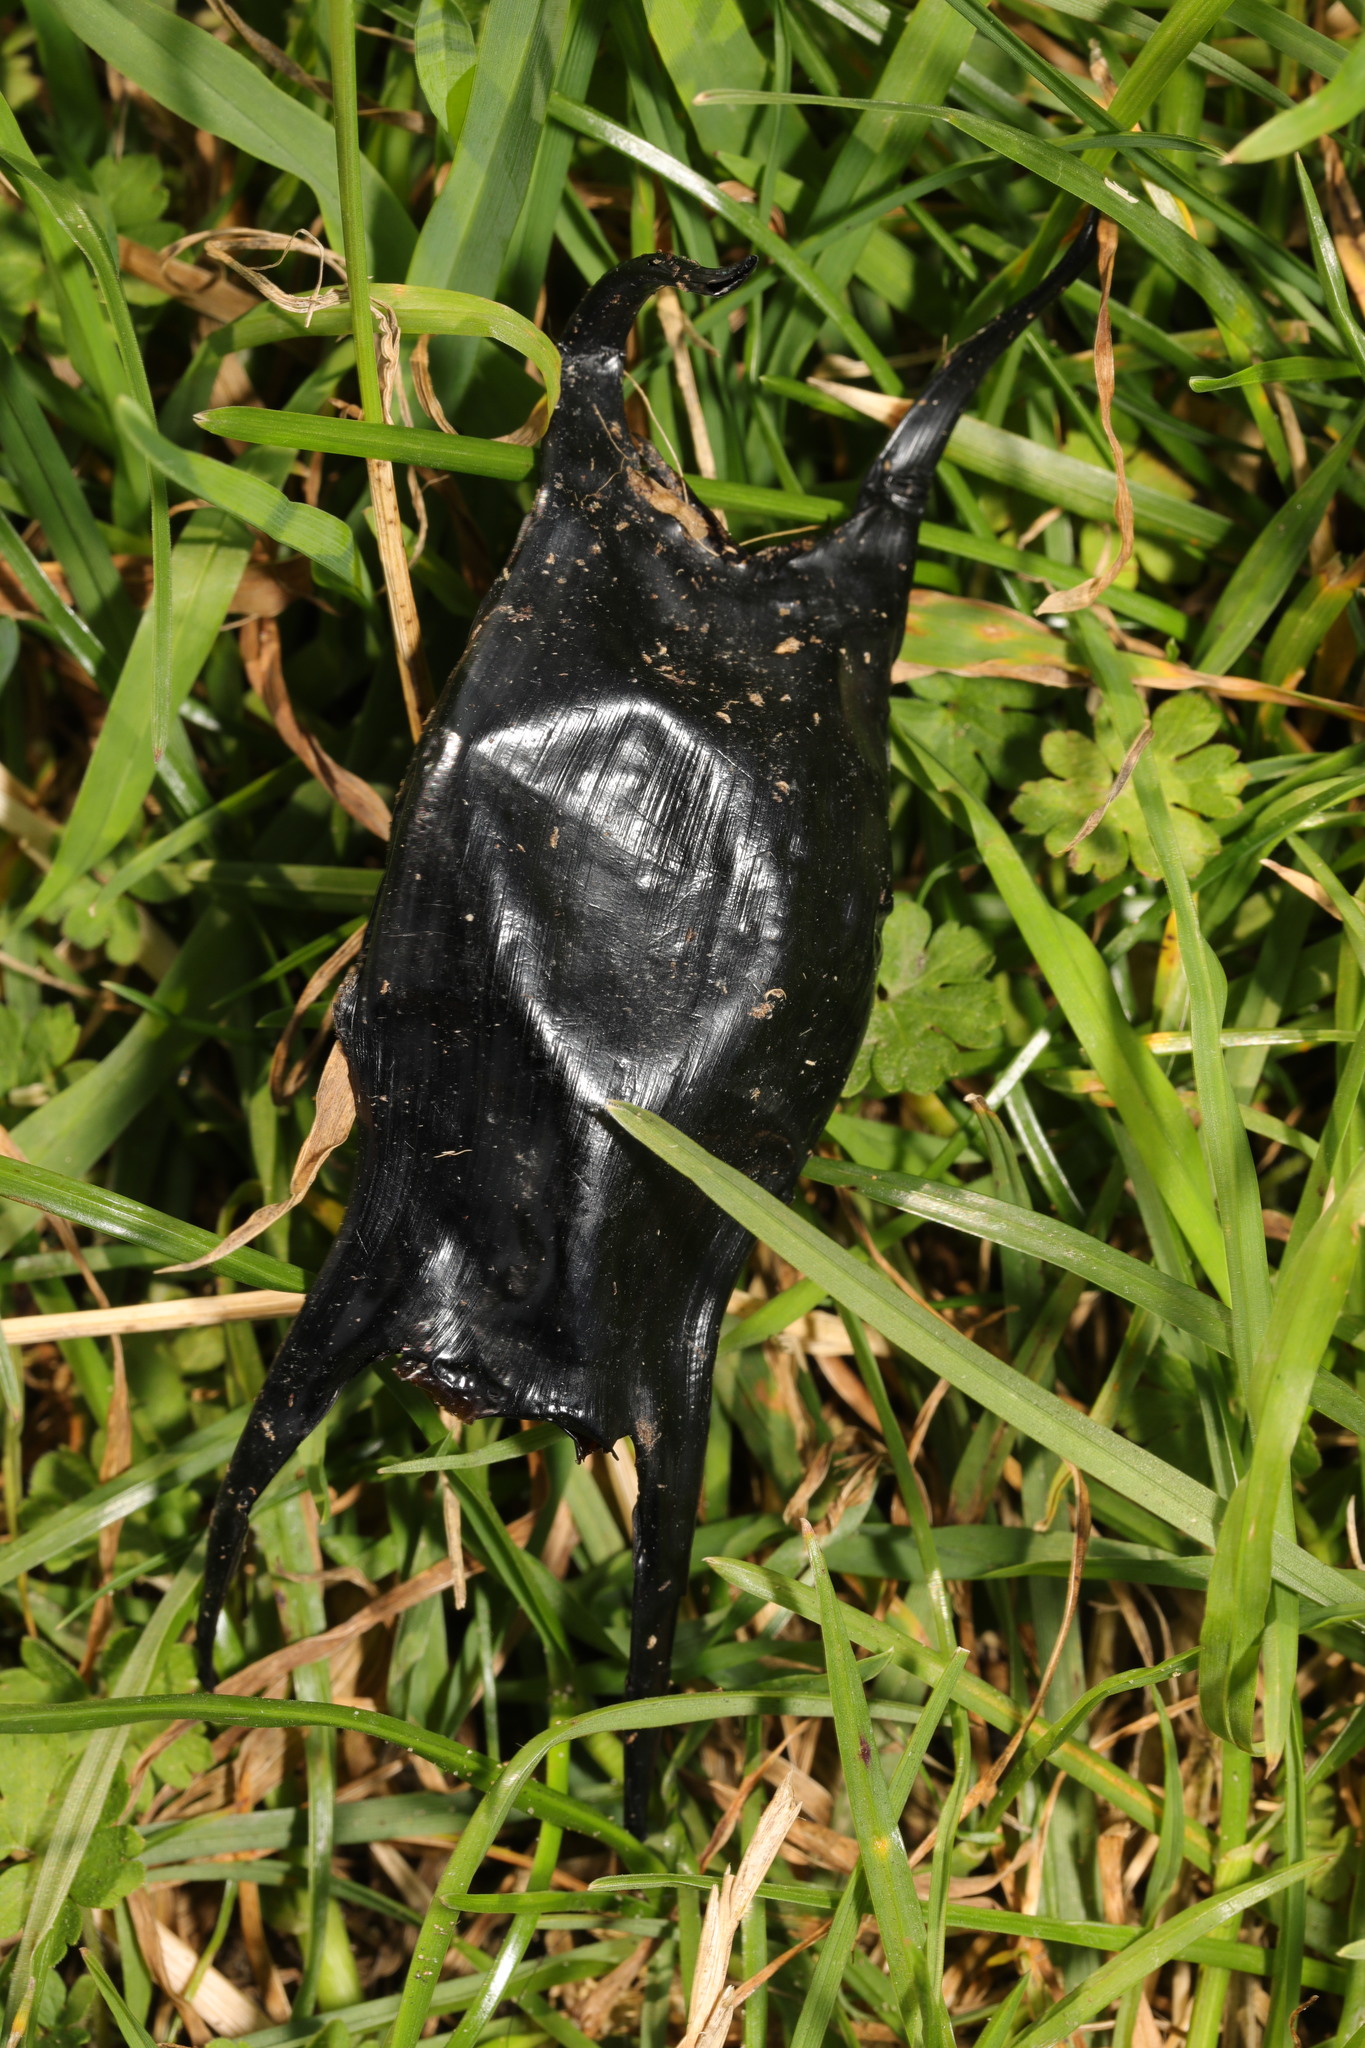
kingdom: Animalia
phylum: Chordata
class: Elasmobranchii
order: Rajiformes
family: Rajidae
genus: Raja
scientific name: Raja montagui
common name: Spotted ray
